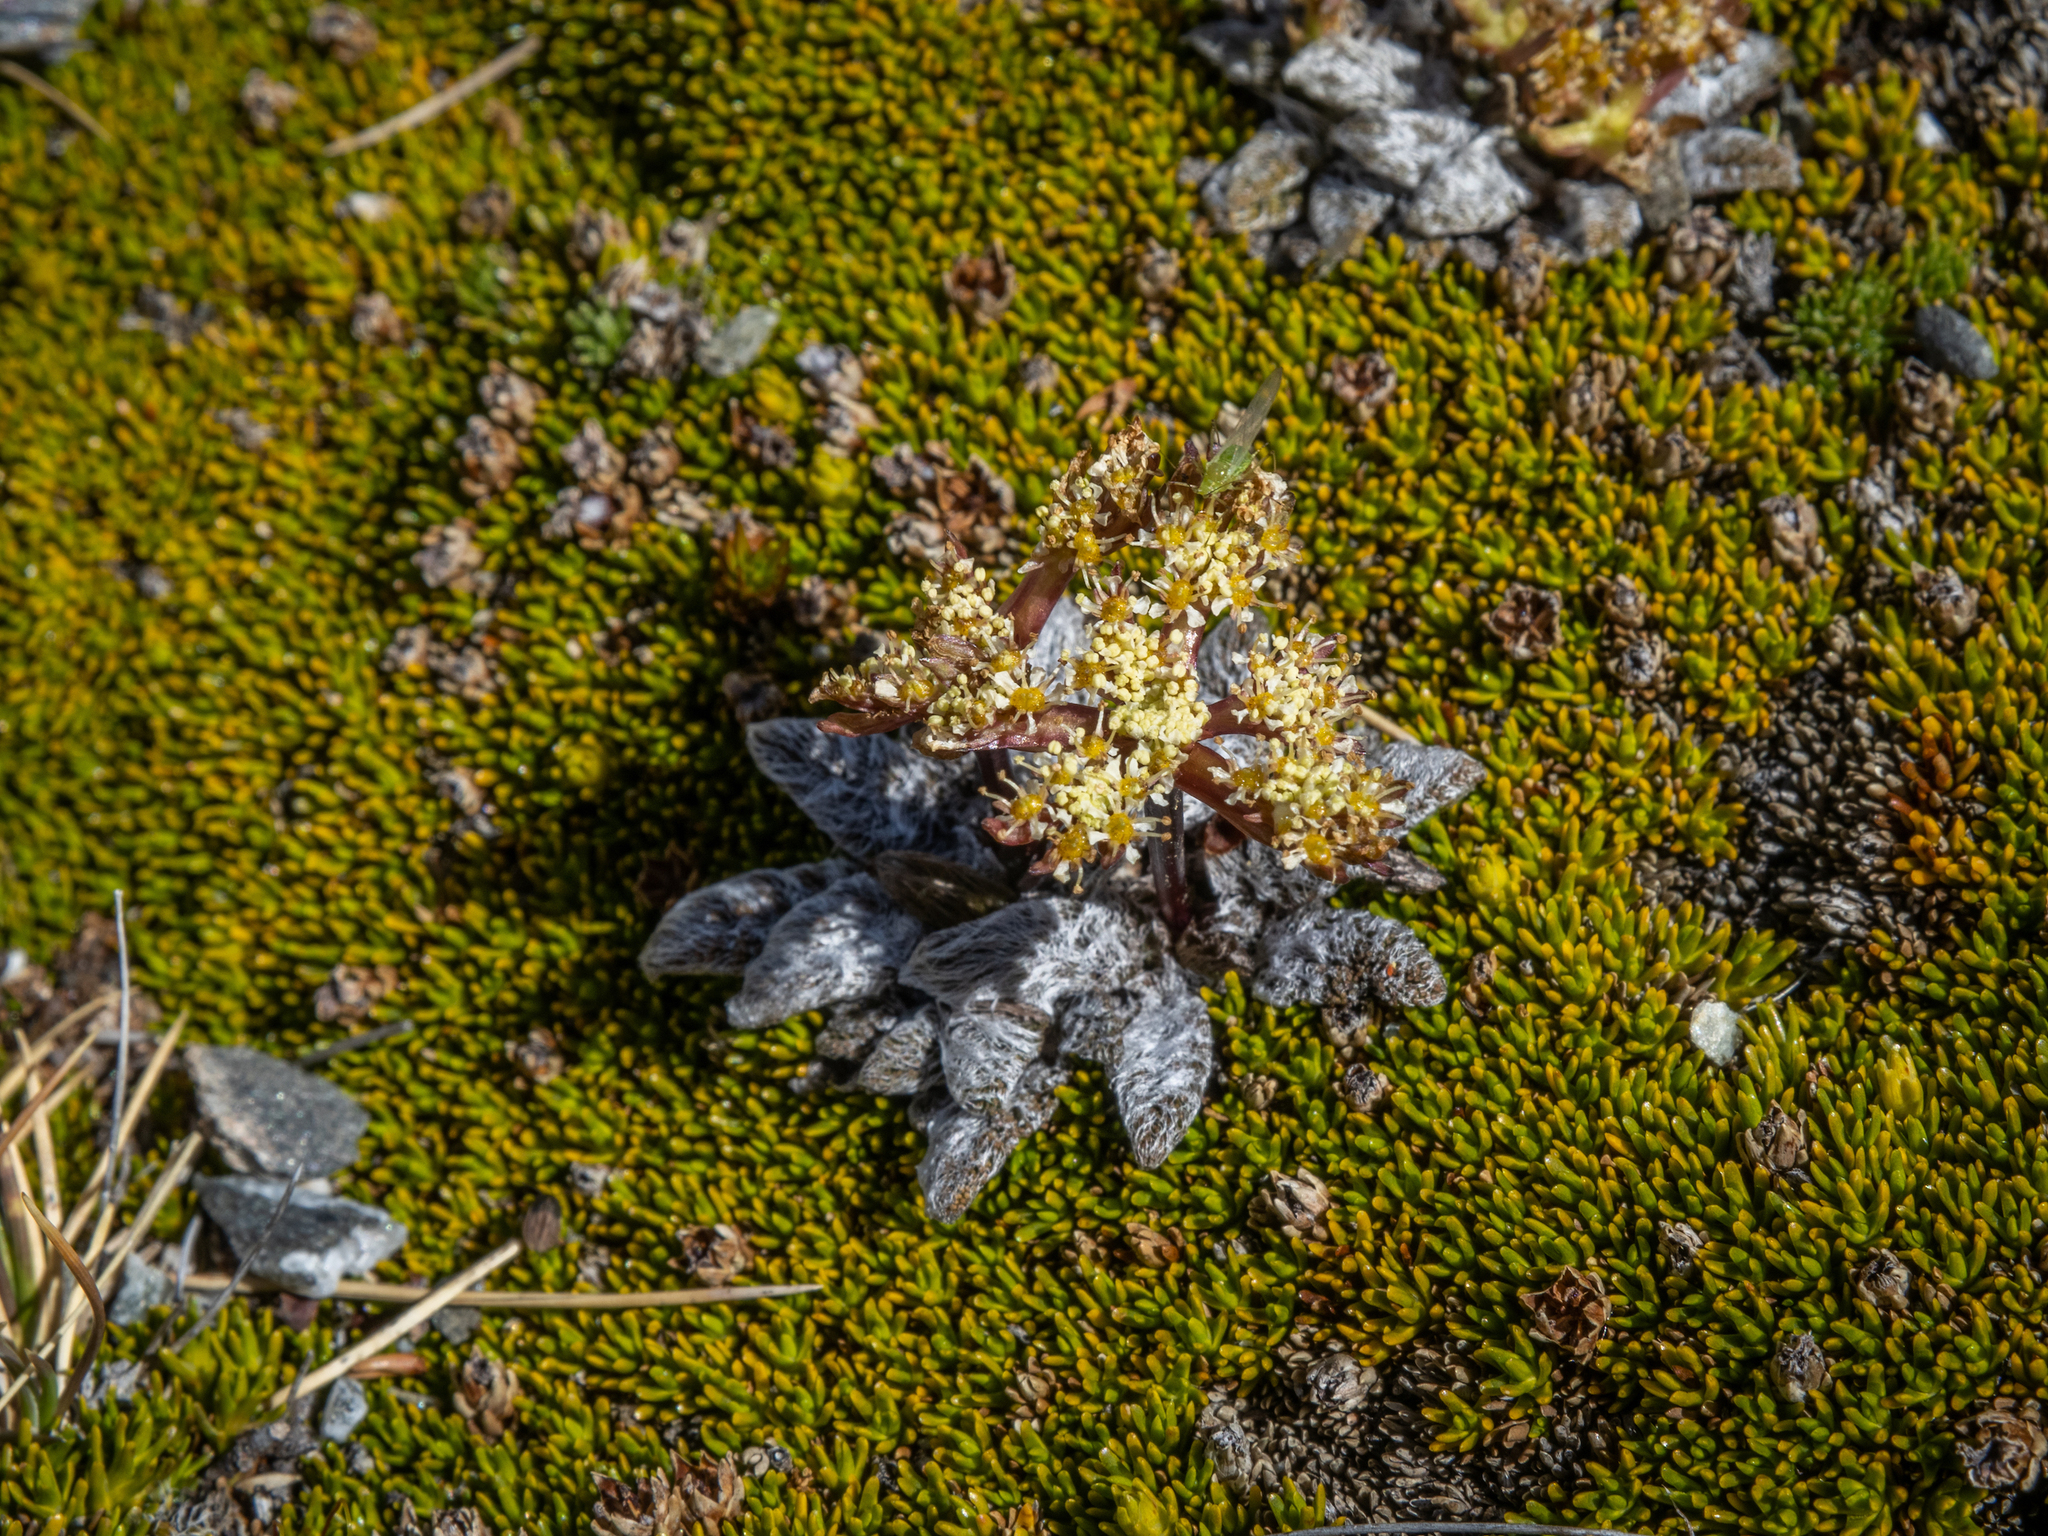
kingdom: Plantae
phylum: Tracheophyta
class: Magnoliopsida
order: Apiales
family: Apiaceae
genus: Anisotome
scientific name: Anisotome lanuginosa
